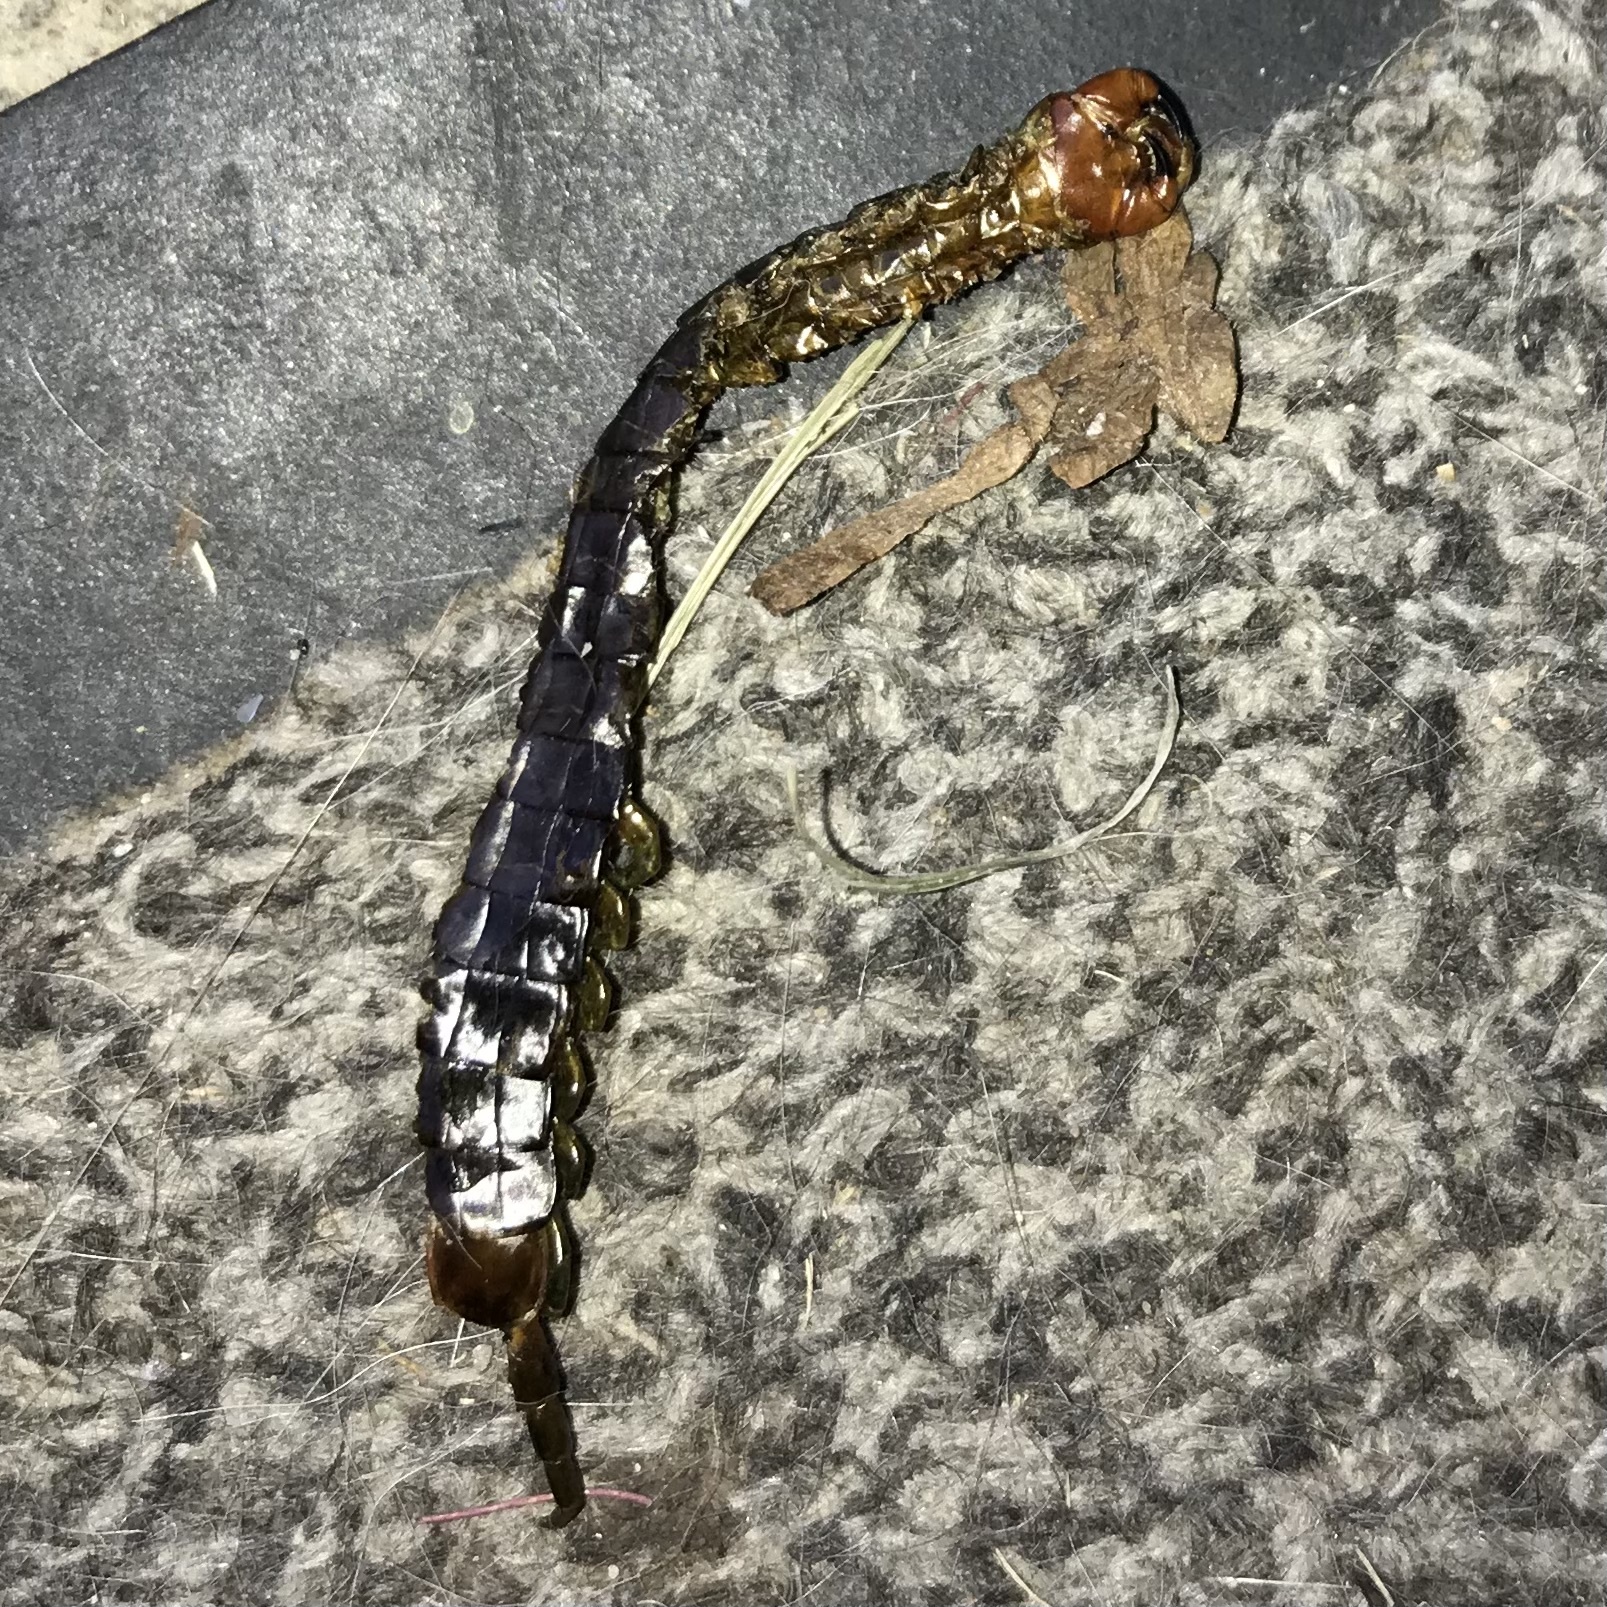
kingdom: Animalia
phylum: Arthropoda
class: Chilopoda
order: Scolopendromorpha
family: Scolopendridae
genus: Cormocephalus
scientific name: Cormocephalus westwoodi
